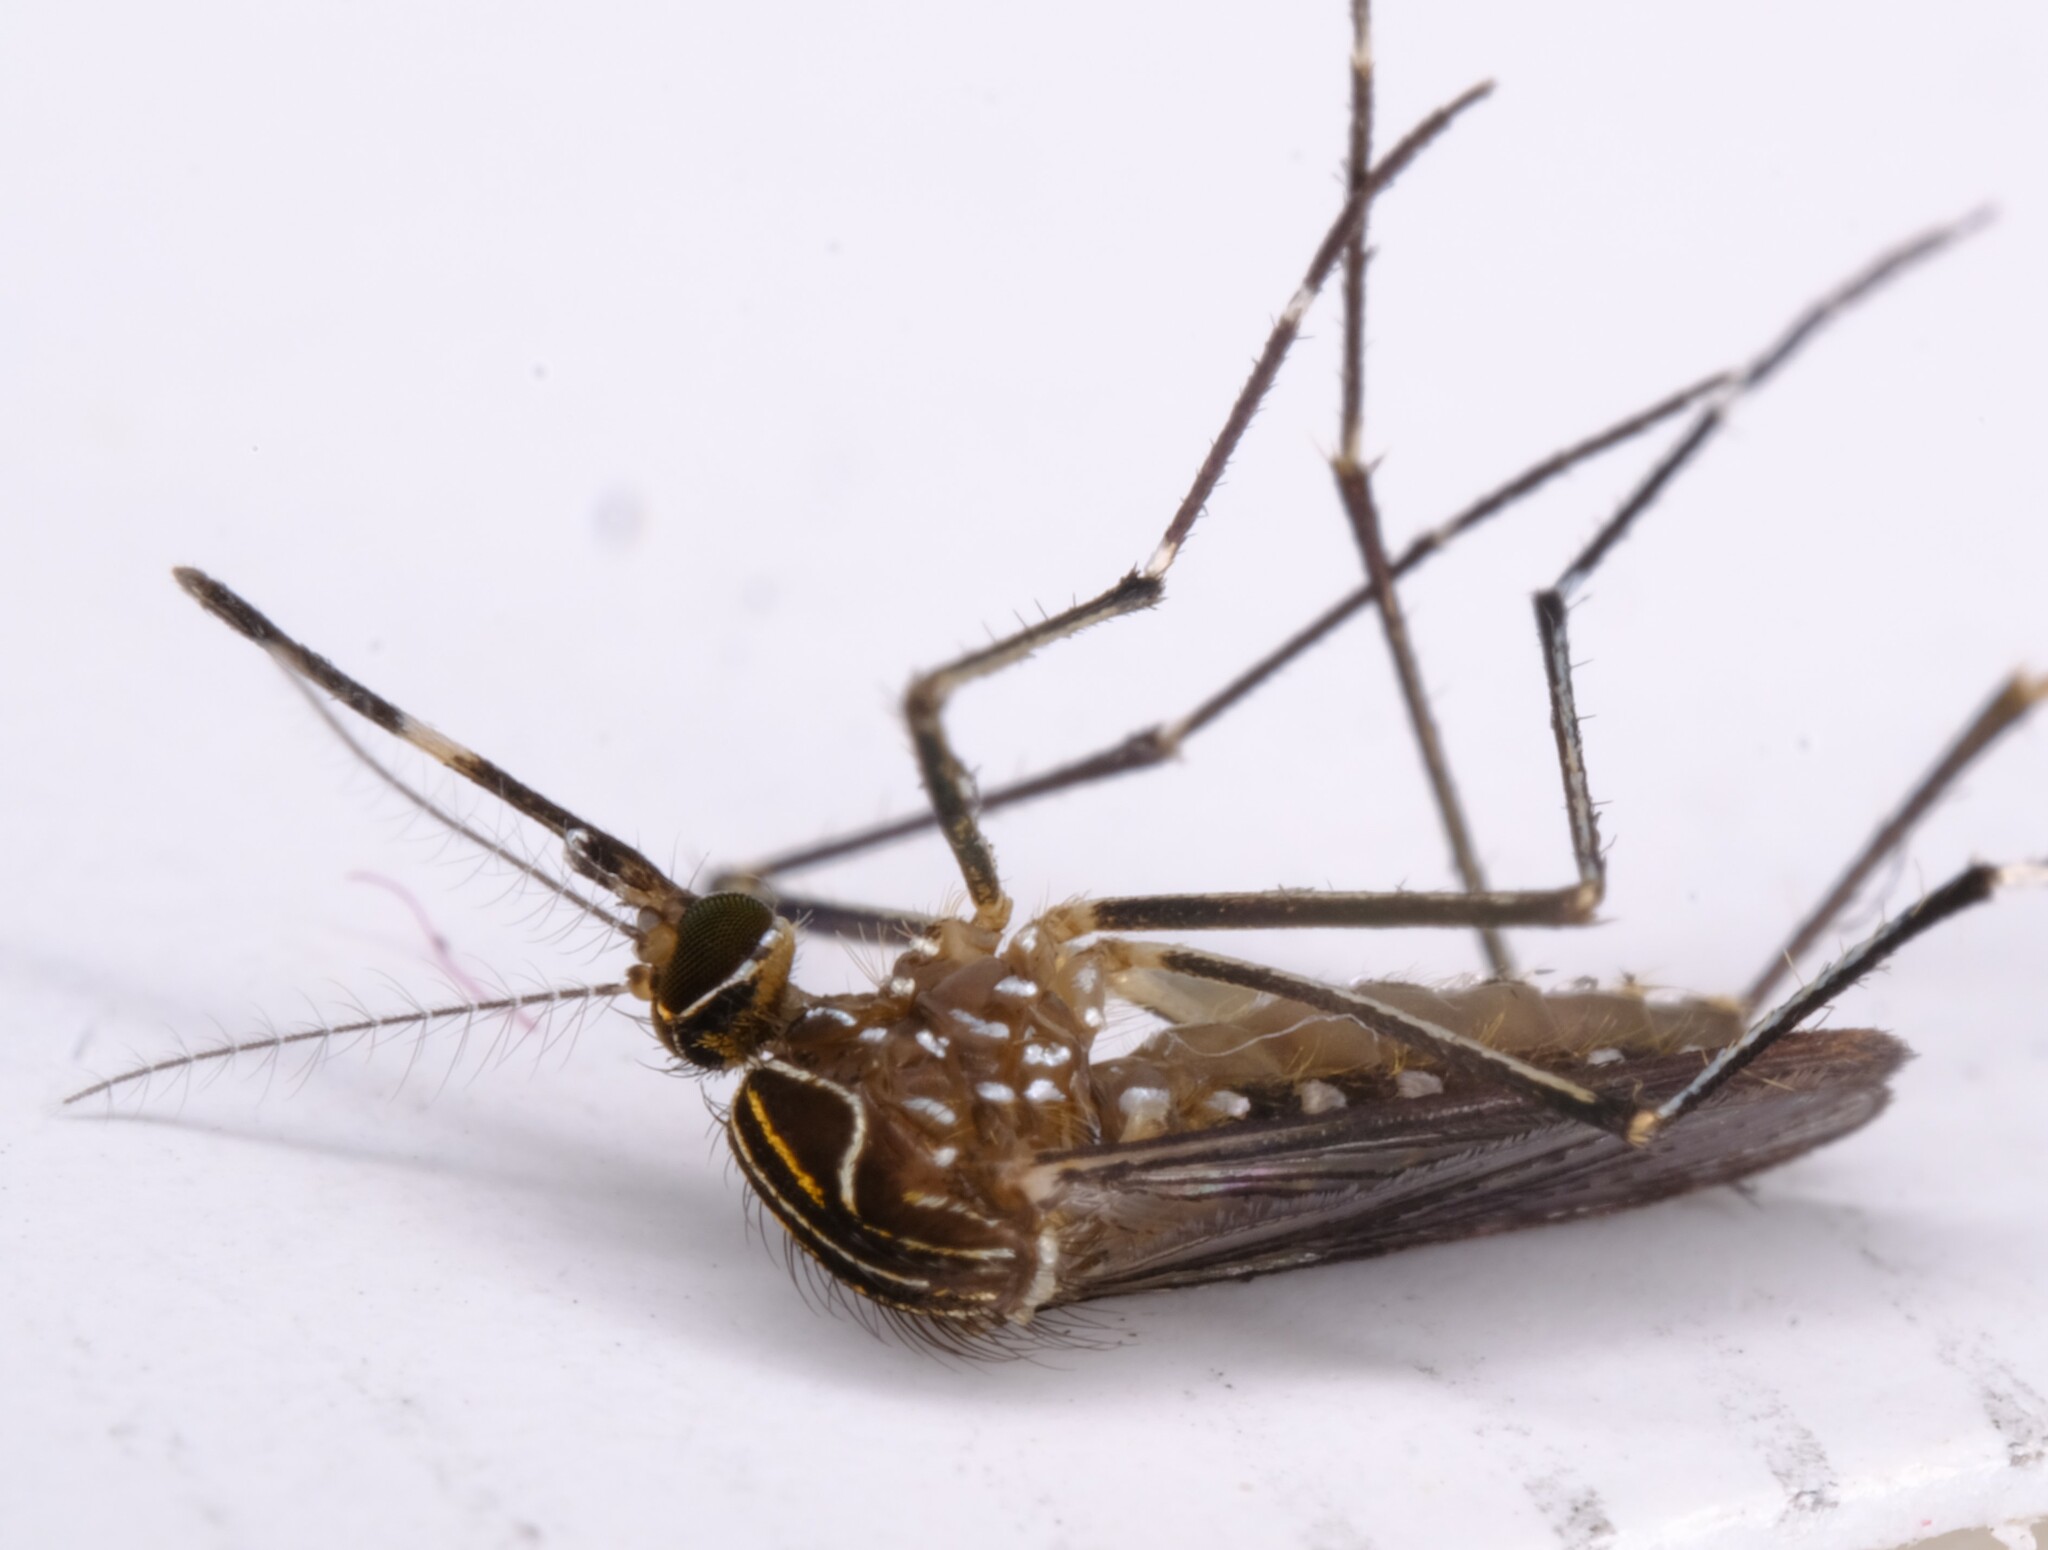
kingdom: Animalia
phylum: Arthropoda
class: Insecta
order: Diptera
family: Culicidae
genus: Aedes
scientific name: Aedes notoscriptus
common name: Australian backyard mosquito
